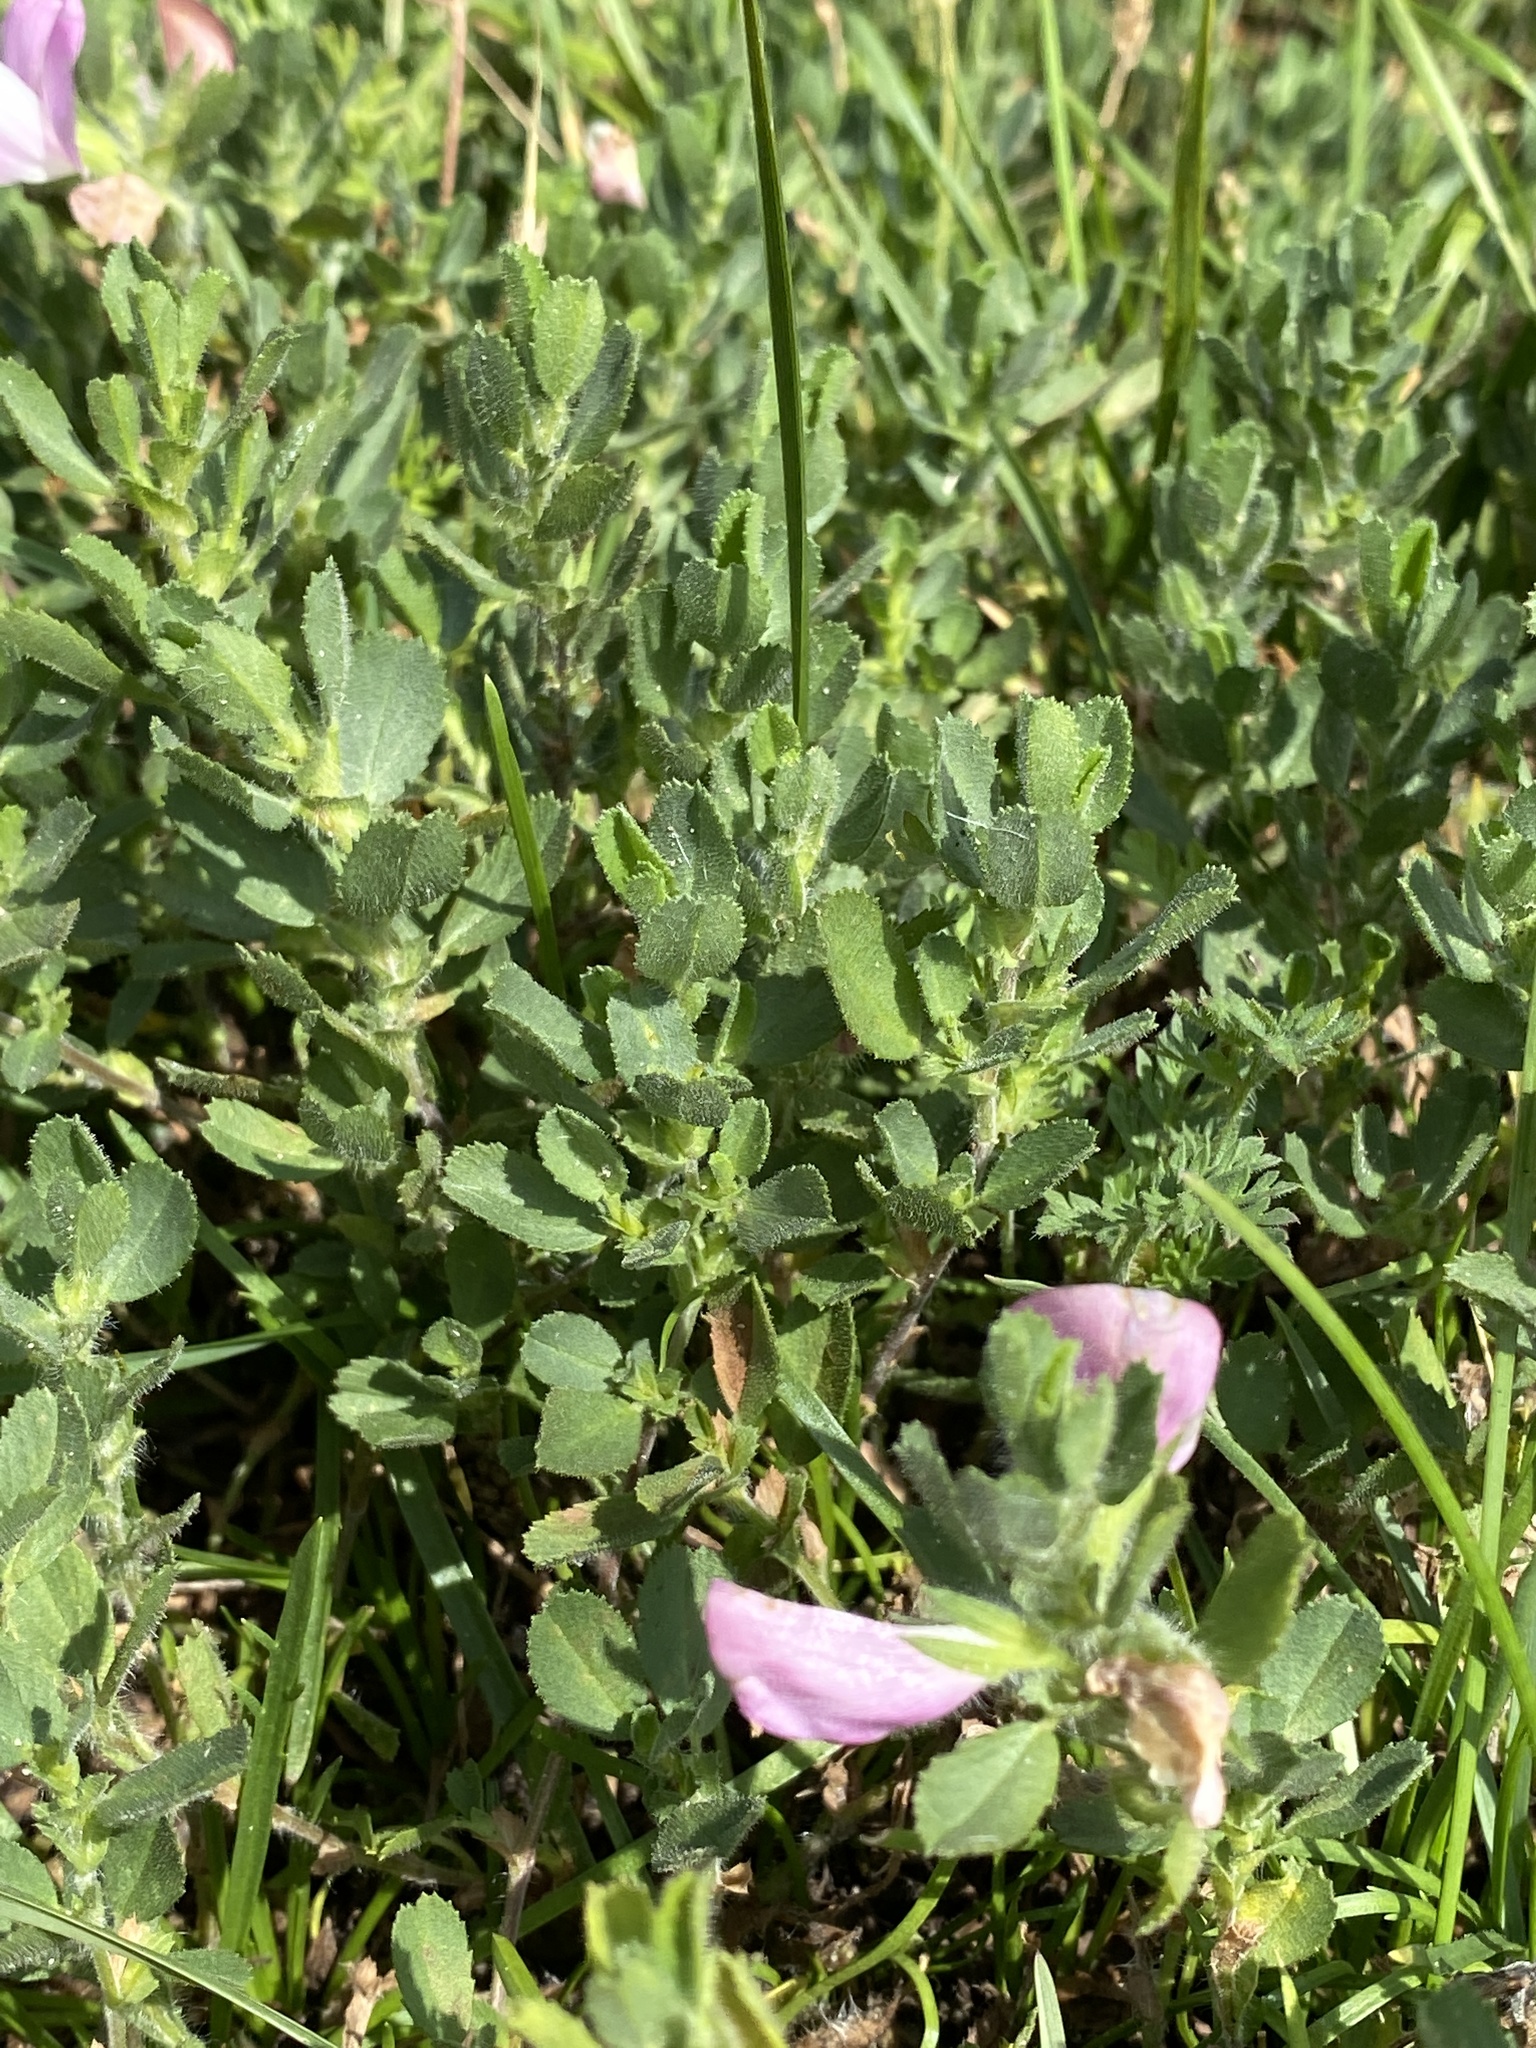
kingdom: Plantae
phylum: Tracheophyta
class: Magnoliopsida
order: Fabales
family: Fabaceae
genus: Ononis
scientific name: Ononis spinosa
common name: Spiny restharrow
